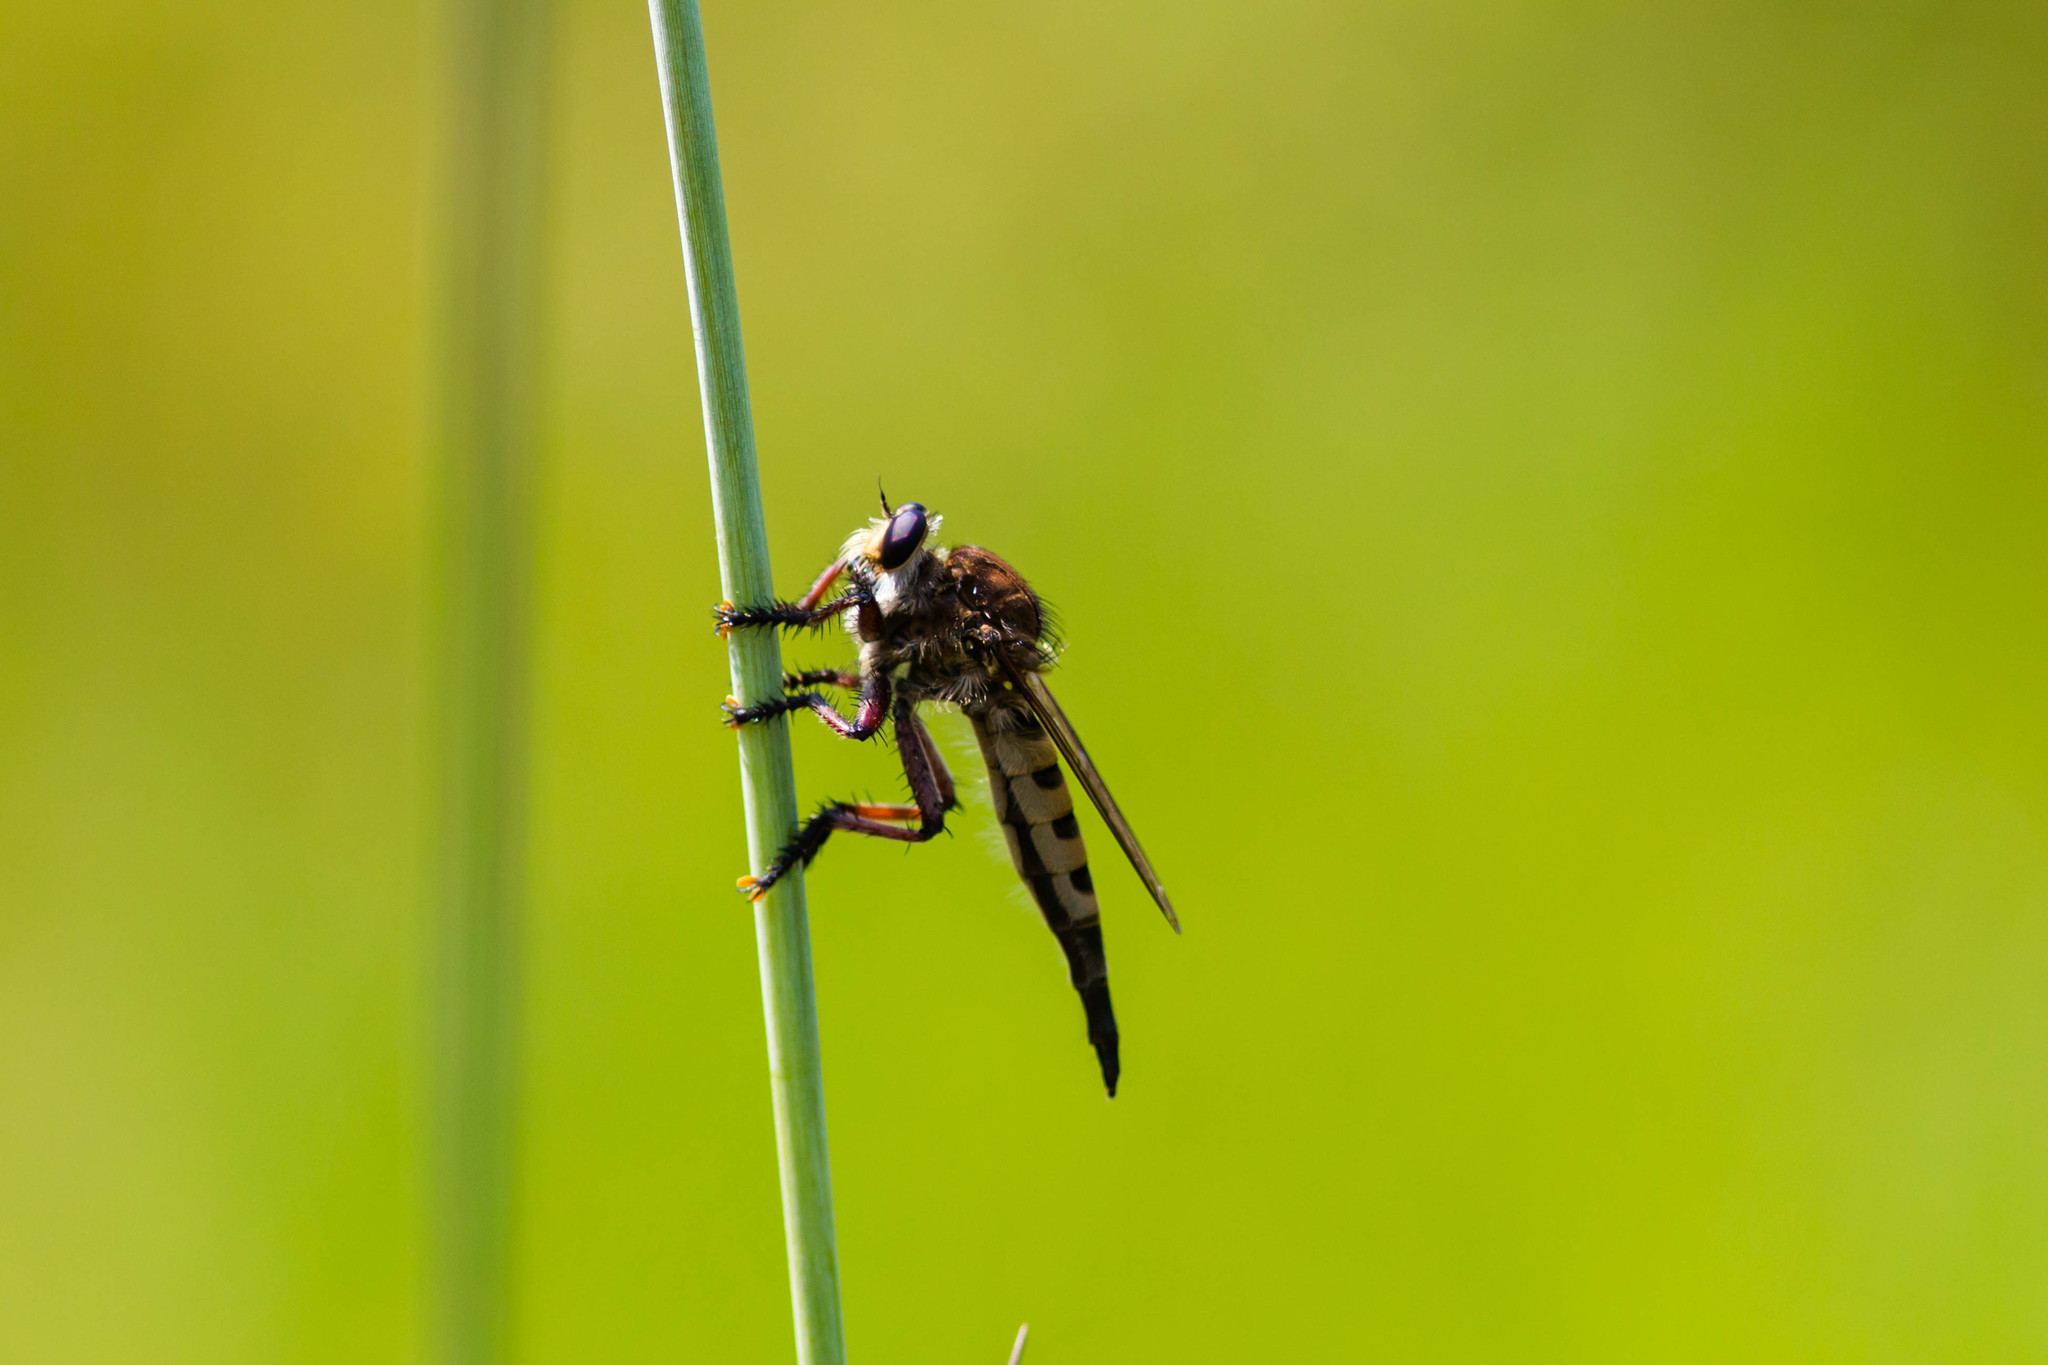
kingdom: Animalia
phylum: Arthropoda
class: Insecta
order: Diptera
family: Asilidae
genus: Promachus
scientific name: Promachus hinei
